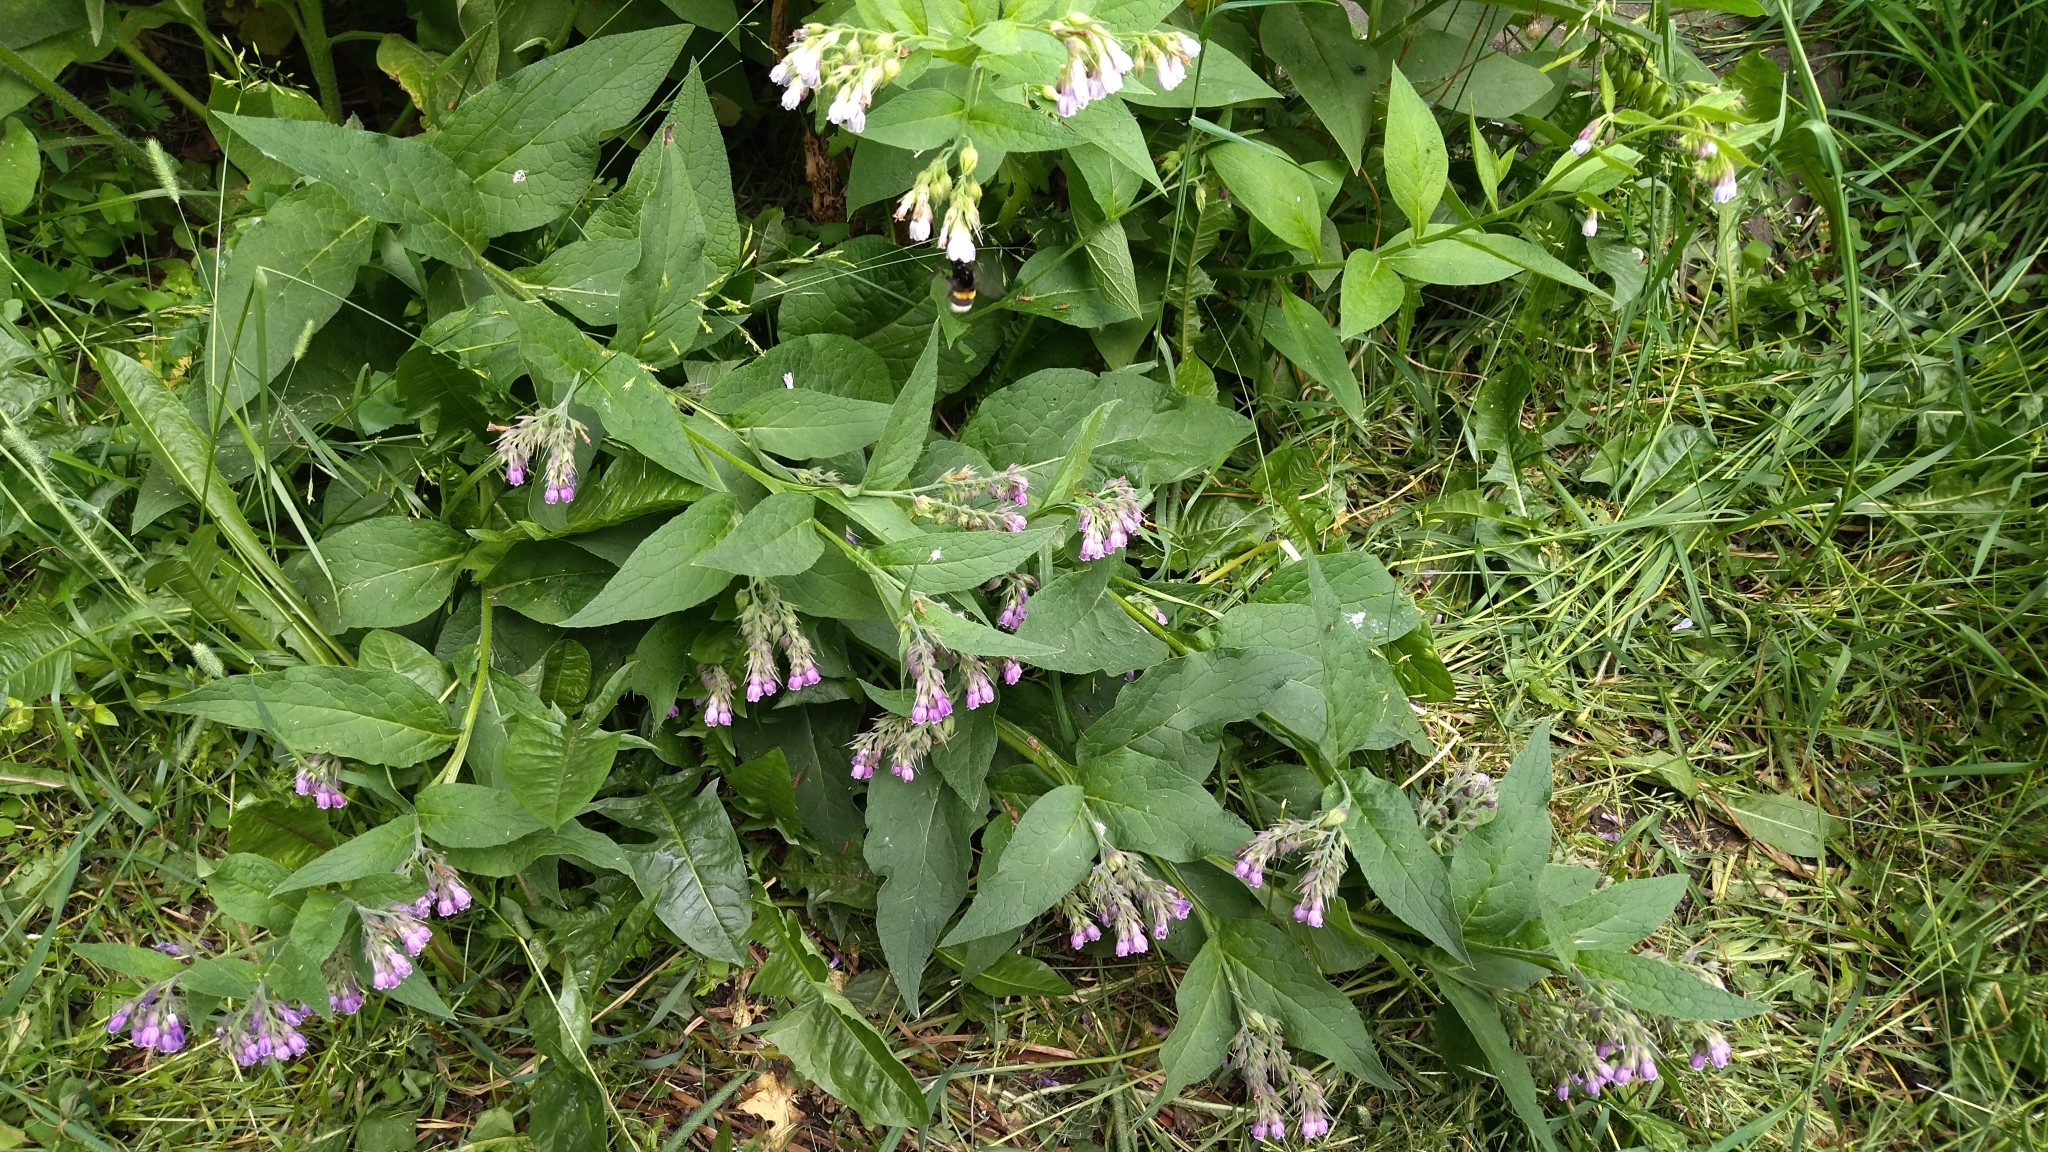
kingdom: Plantae
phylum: Tracheophyta
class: Magnoliopsida
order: Boraginales
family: Boraginaceae
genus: Symphytum
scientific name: Symphytum uplandicum
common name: Russian comfrey
